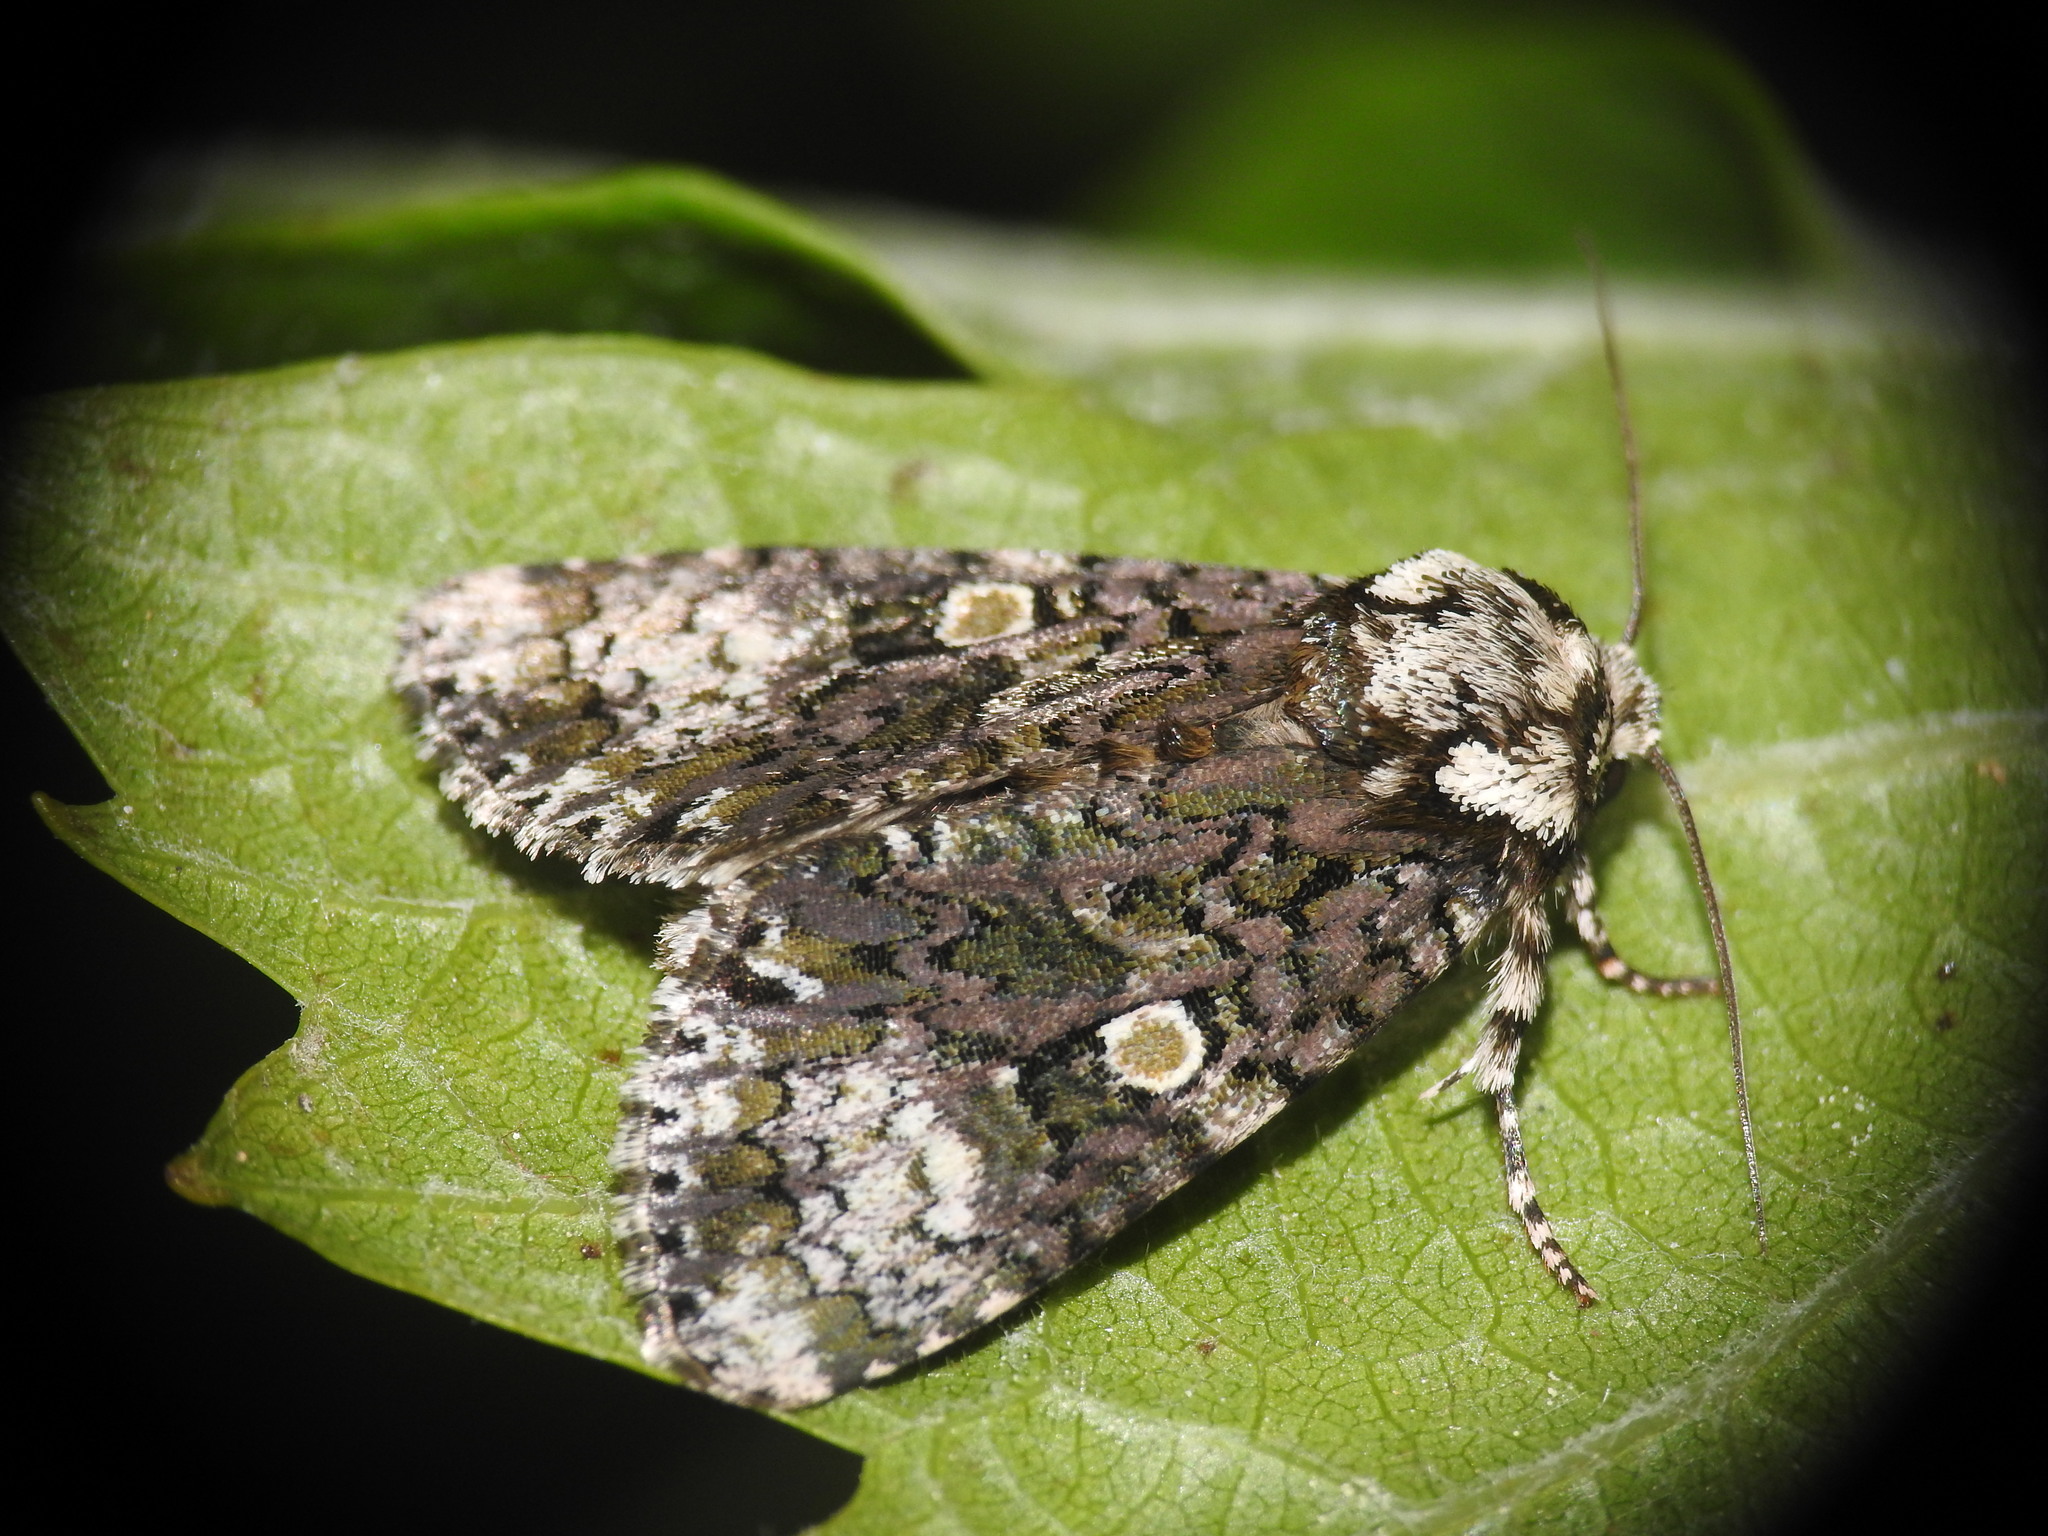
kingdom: Animalia
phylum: Arthropoda
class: Insecta
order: Lepidoptera
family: Noctuidae
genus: Craniophora
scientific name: Craniophora ligustri
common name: Coronet
